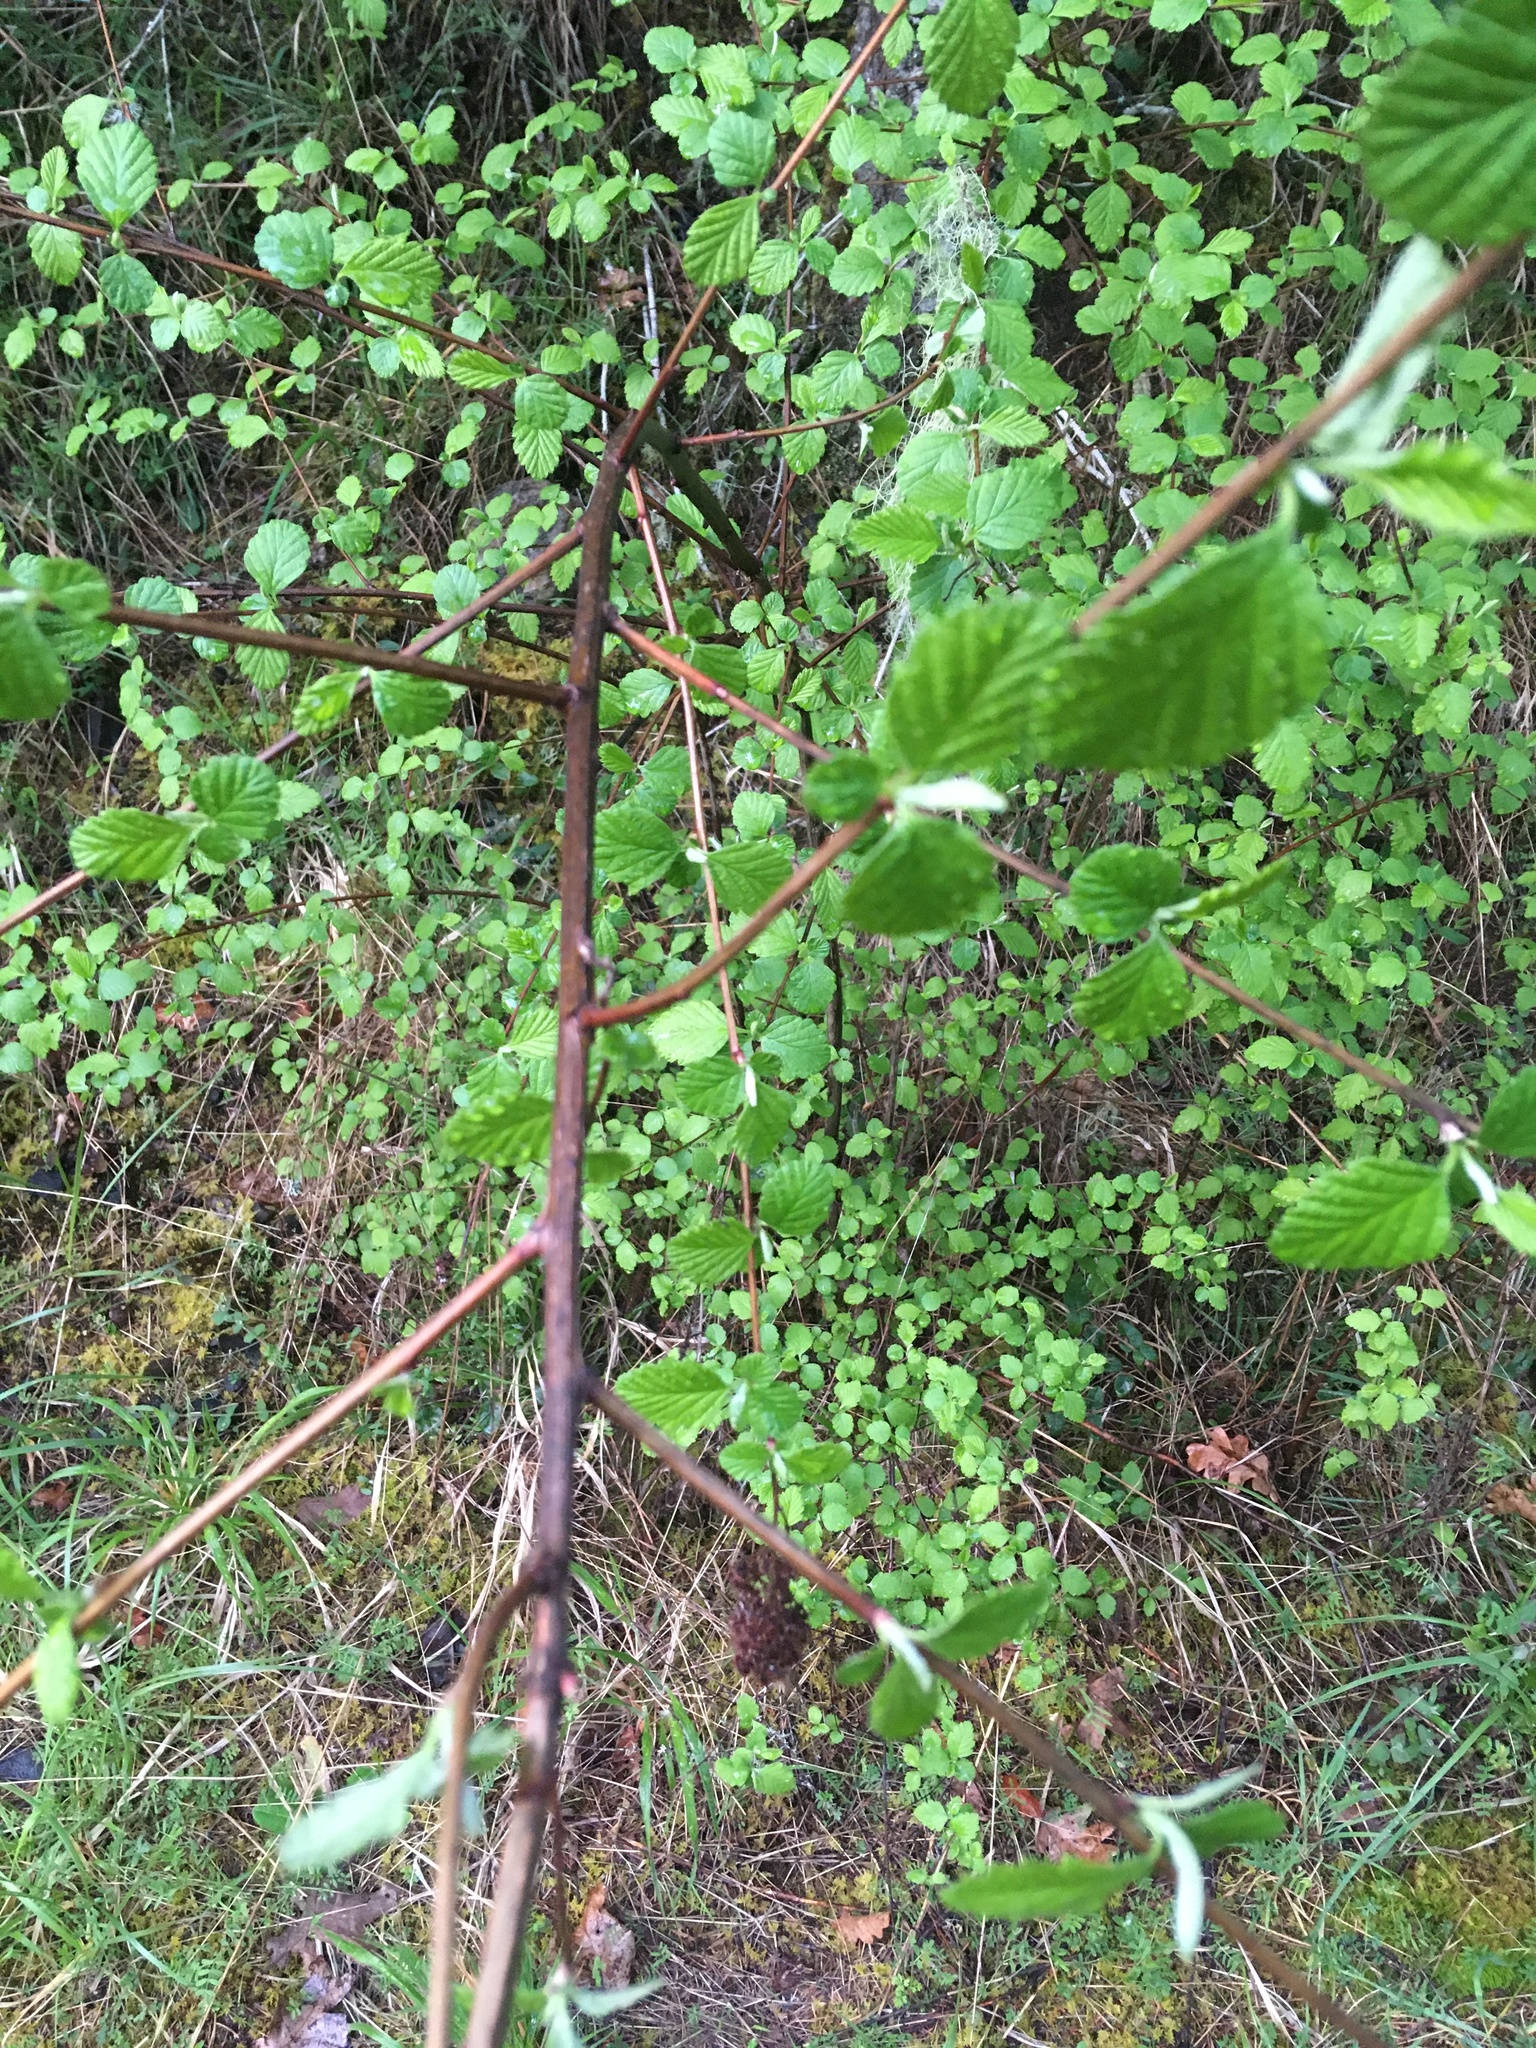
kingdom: Plantae
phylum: Tracheophyta
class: Magnoliopsida
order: Rosales
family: Rosaceae
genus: Holodiscus
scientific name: Holodiscus discolor
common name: Oceanspray
